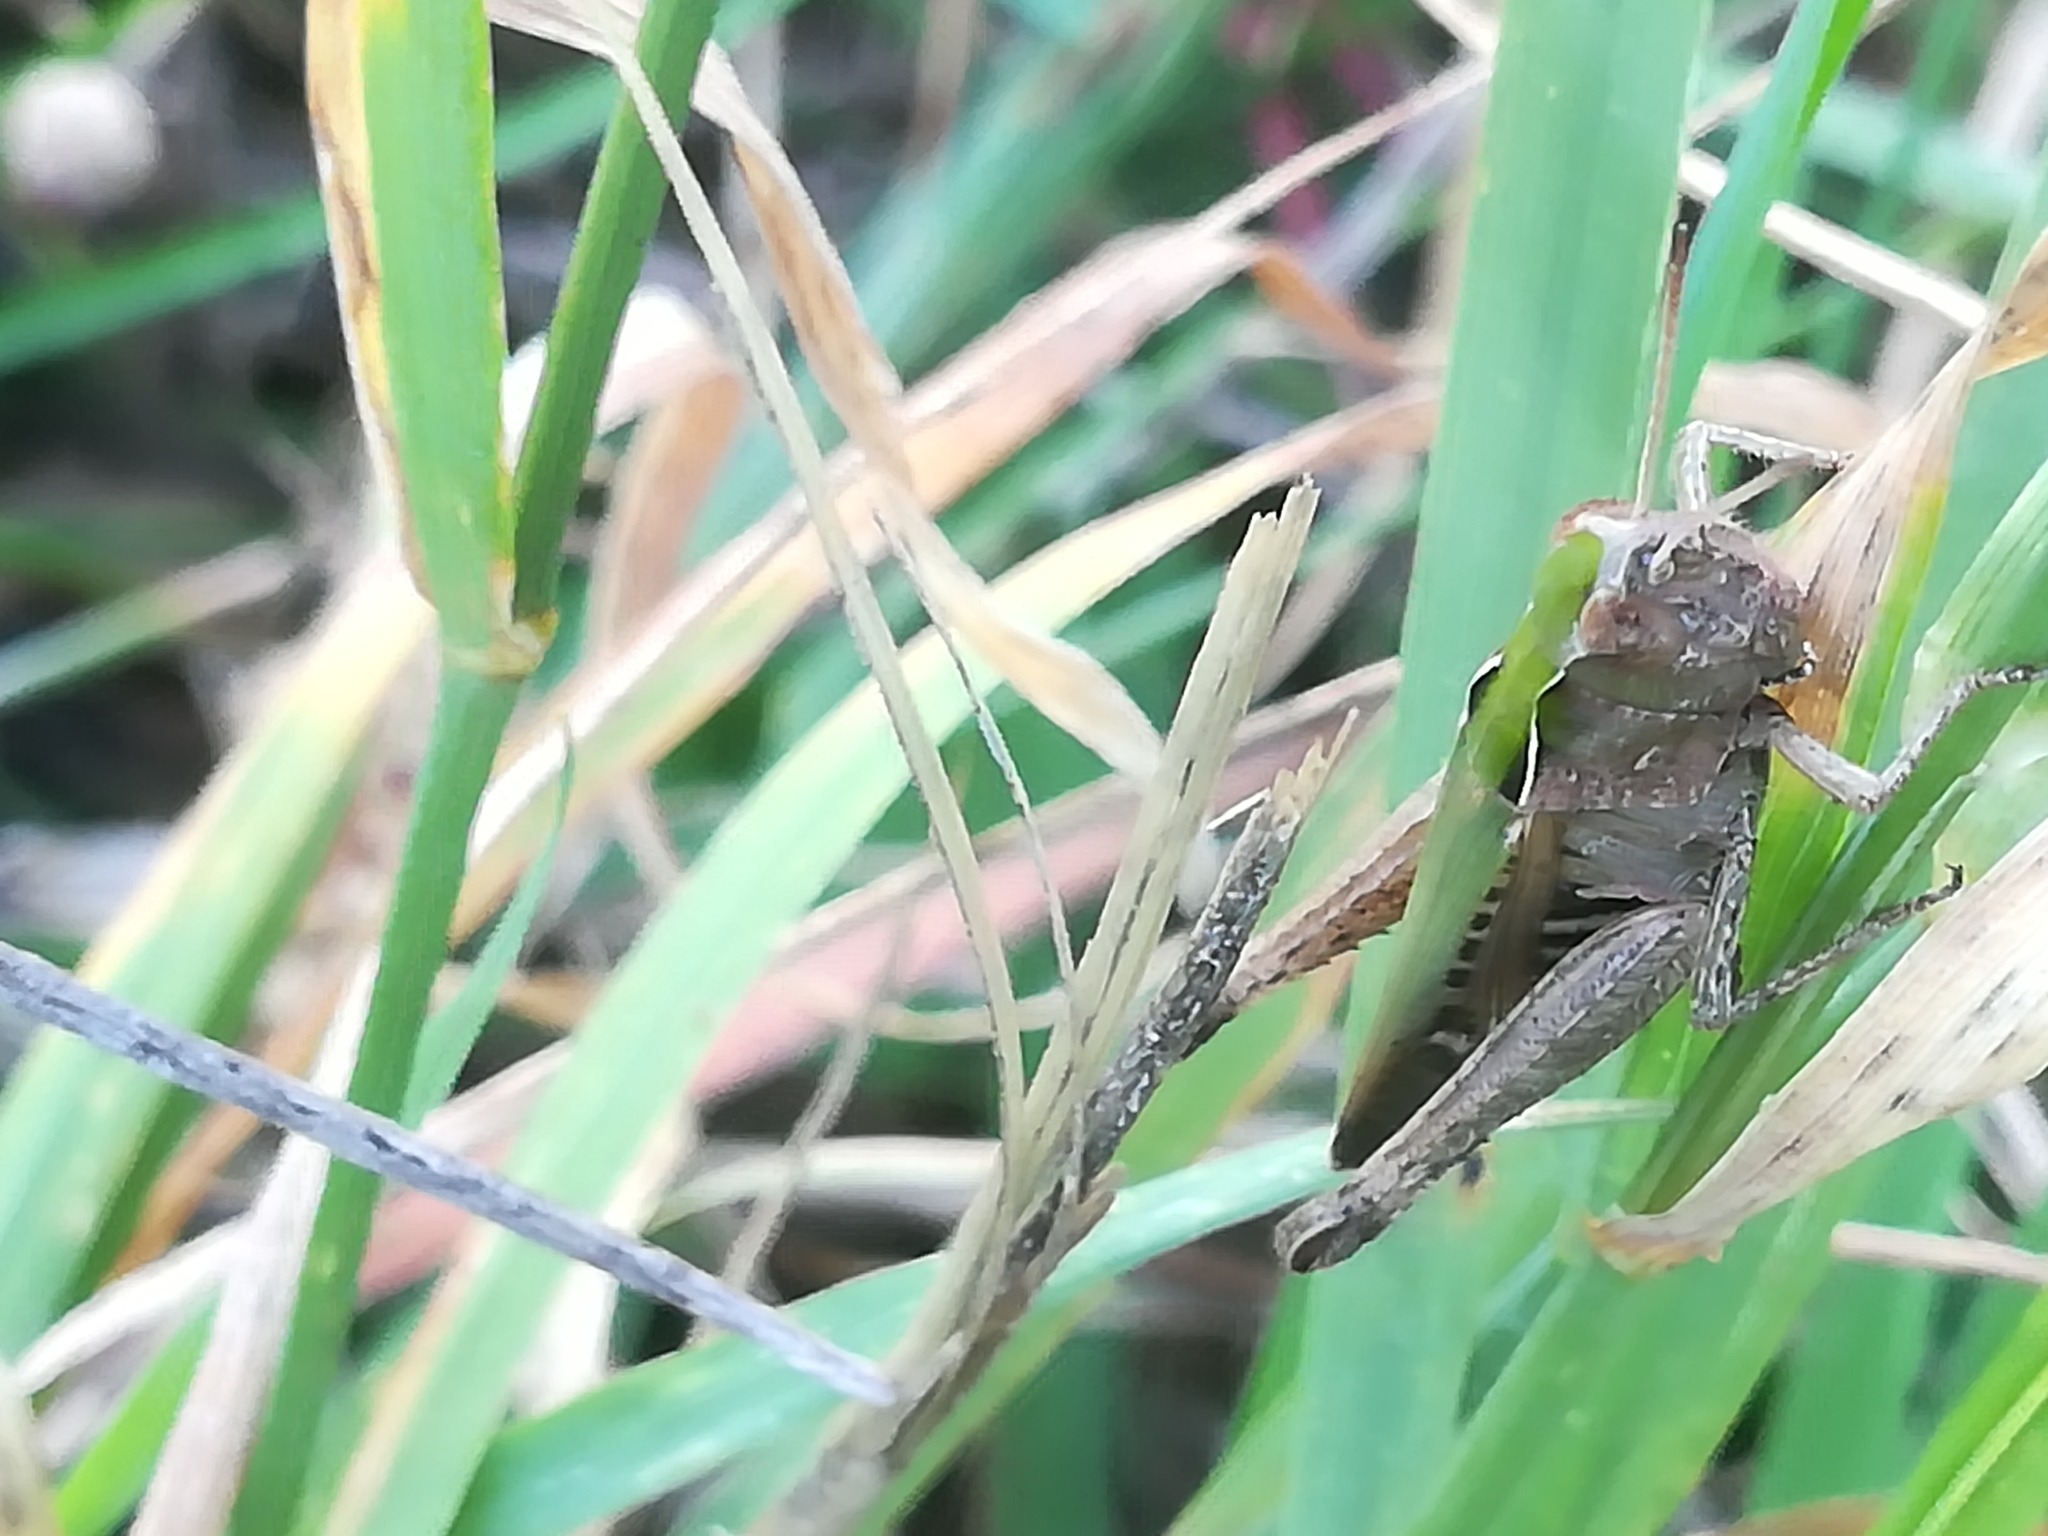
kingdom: Animalia
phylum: Arthropoda
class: Insecta
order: Orthoptera
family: Acrididae
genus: Omocestus
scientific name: Omocestus rufipes
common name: Woodland grasshopper
